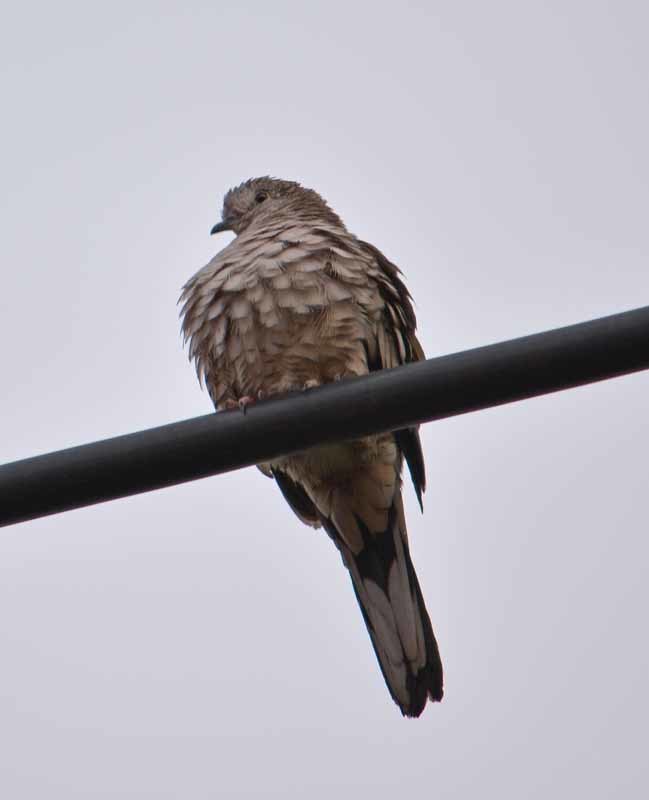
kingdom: Animalia
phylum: Chordata
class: Aves
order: Columbiformes
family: Columbidae
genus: Columbina
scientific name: Columbina inca
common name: Inca dove
